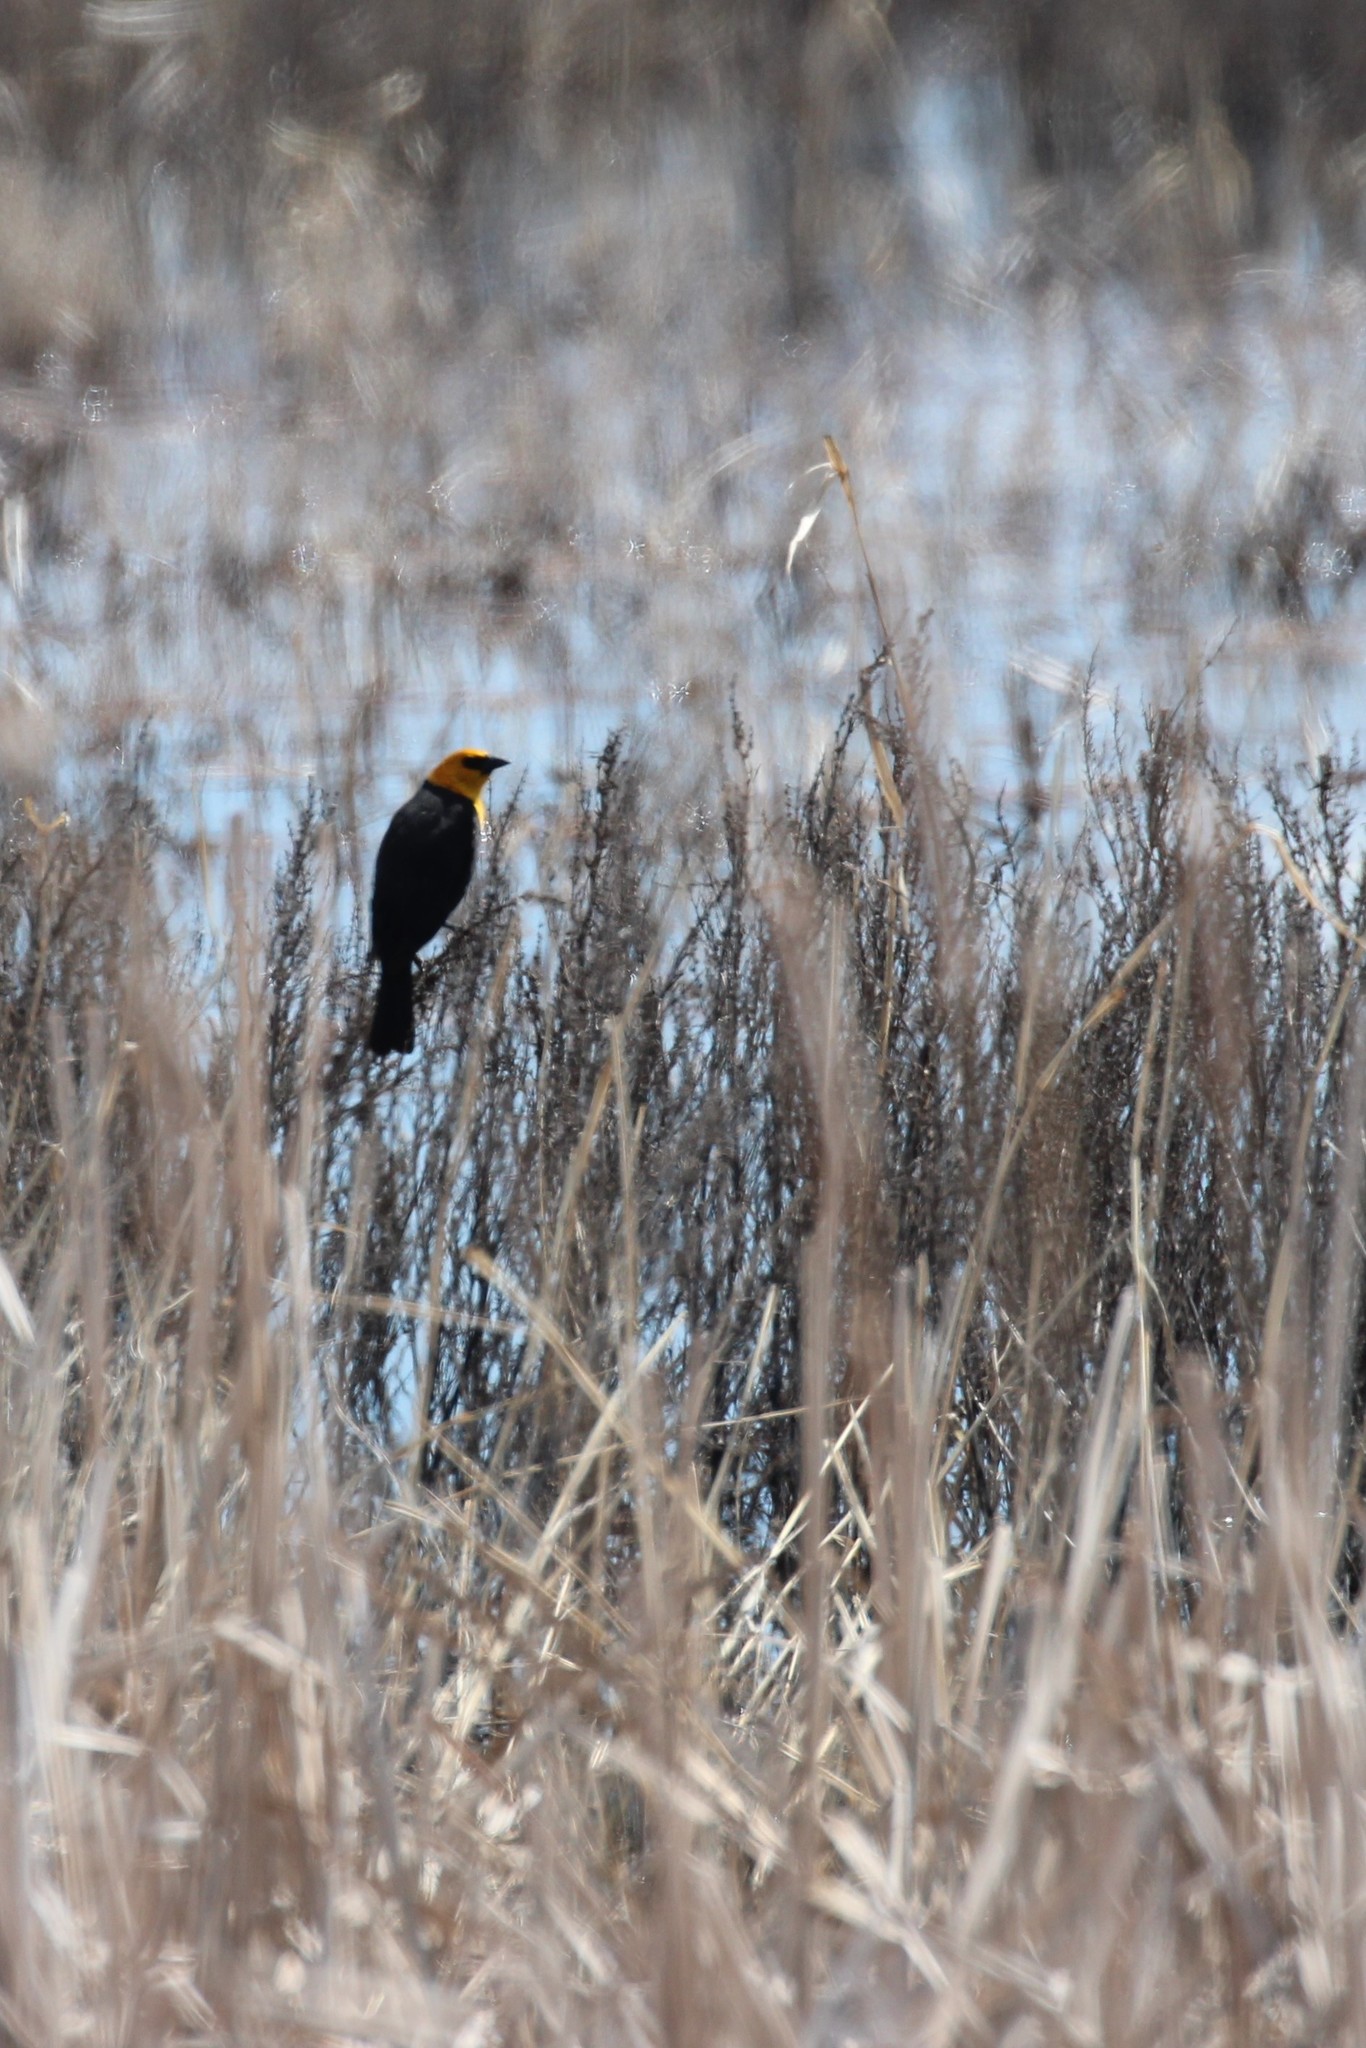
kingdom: Animalia
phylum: Chordata
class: Aves
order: Passeriformes
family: Icteridae
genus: Xanthocephalus
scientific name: Xanthocephalus xanthocephalus
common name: Yellow-headed blackbird
